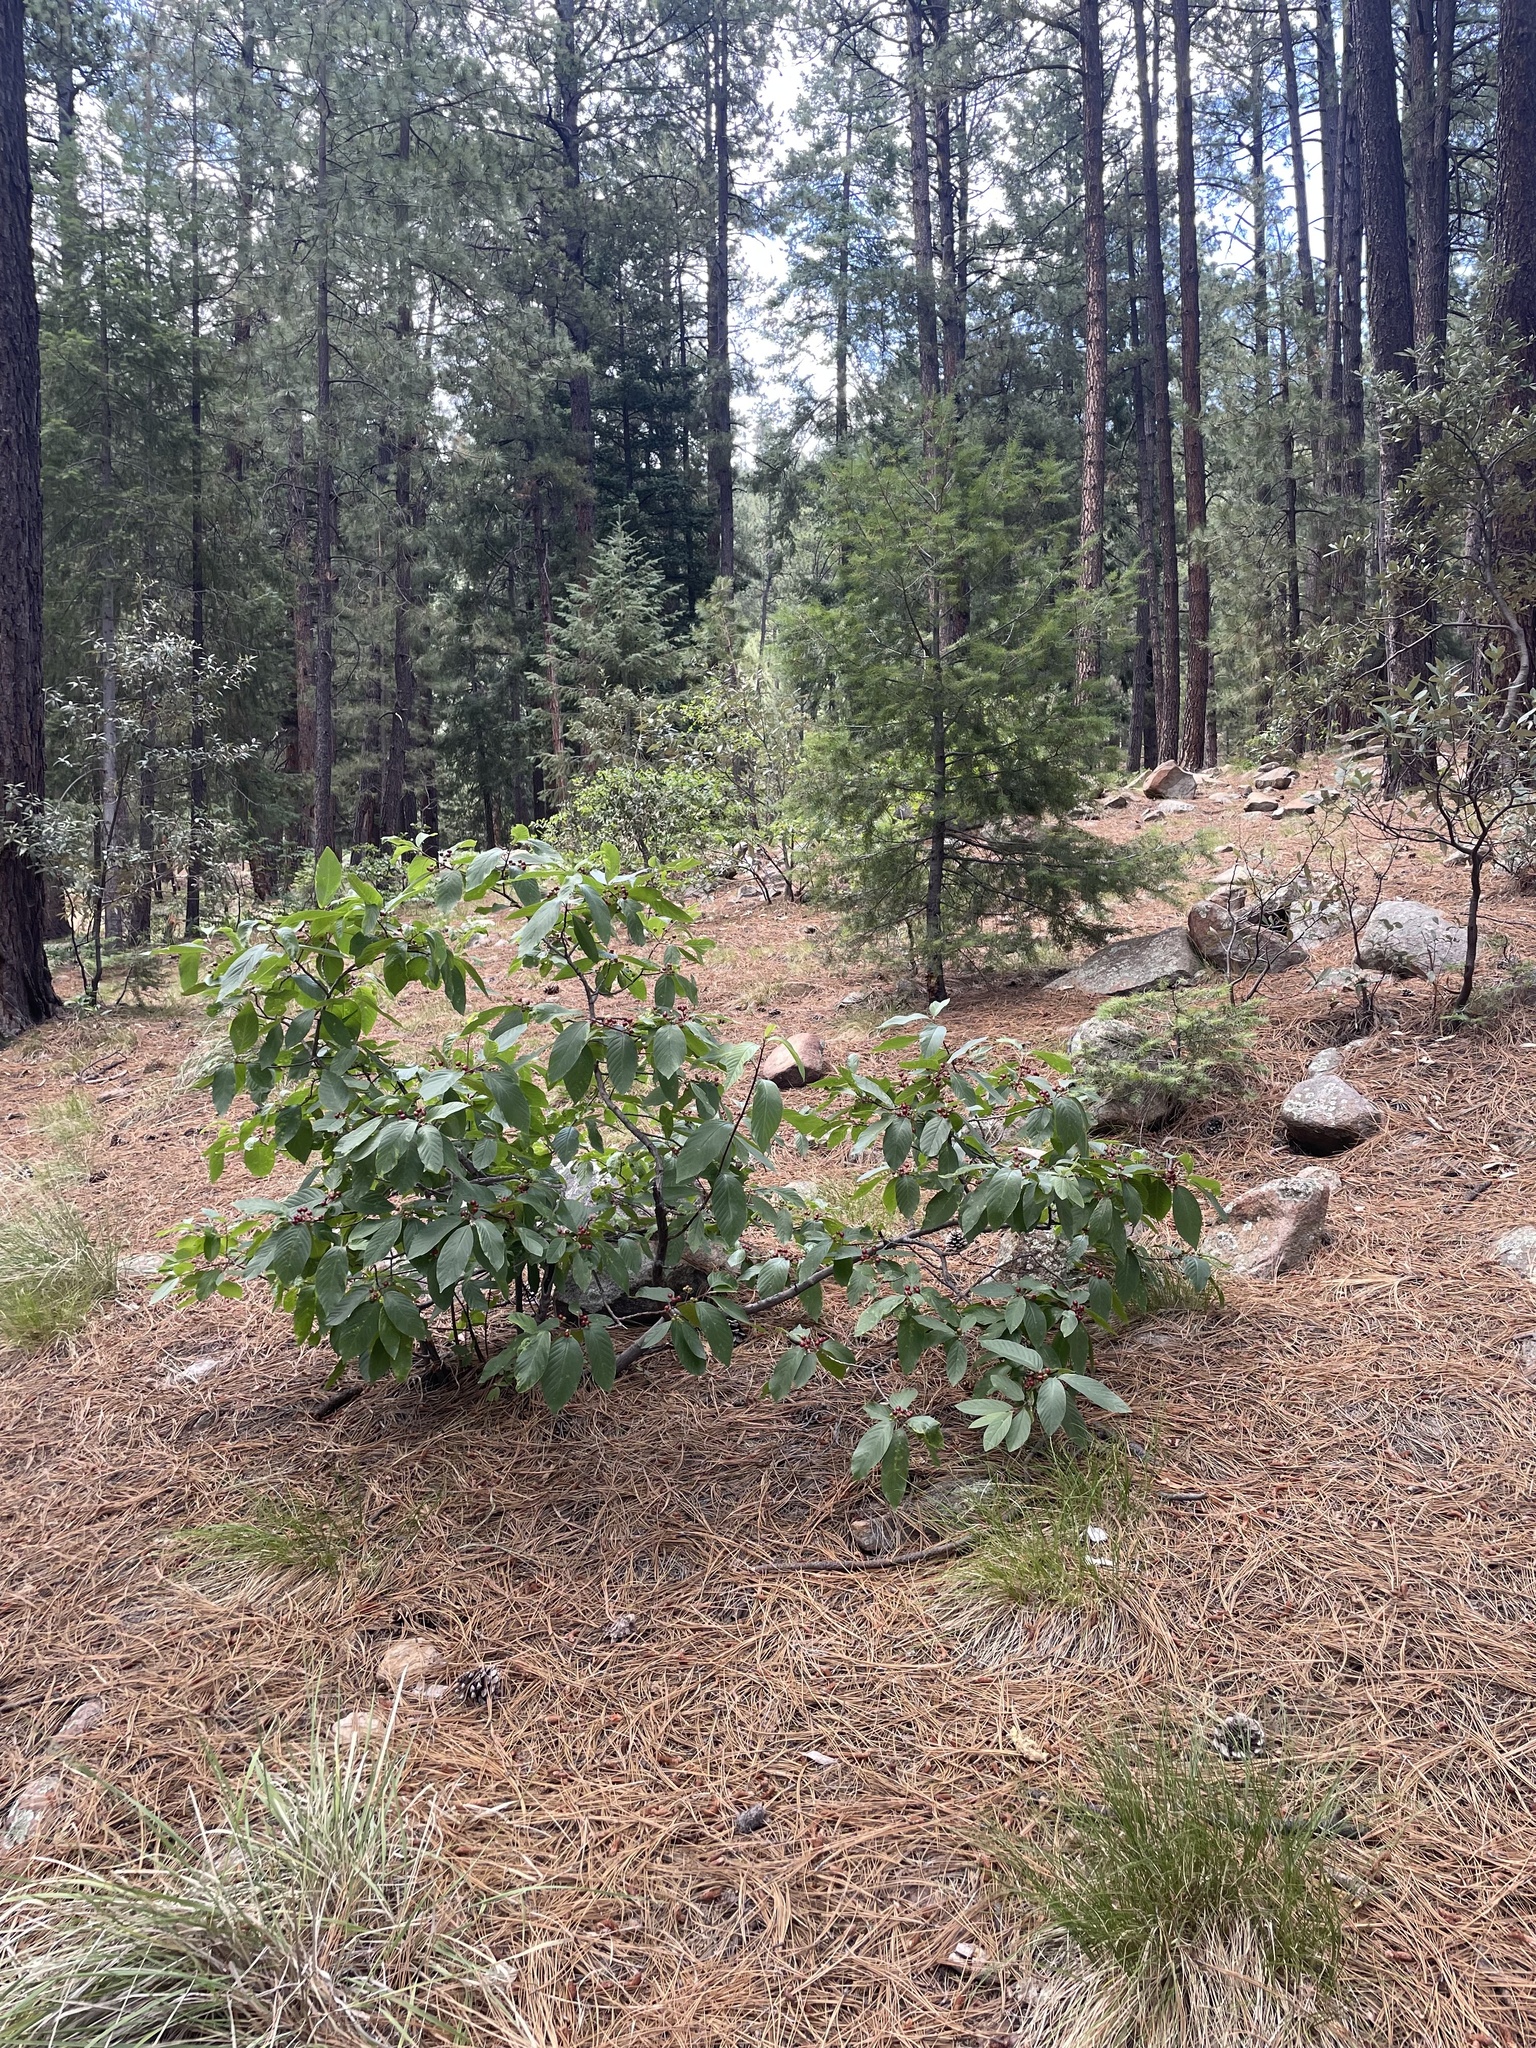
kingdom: Plantae
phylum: Tracheophyta
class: Magnoliopsida
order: Rosales
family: Rhamnaceae
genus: Frangula
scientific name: Frangula betulifolia
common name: Birch-leaf buckthorn
